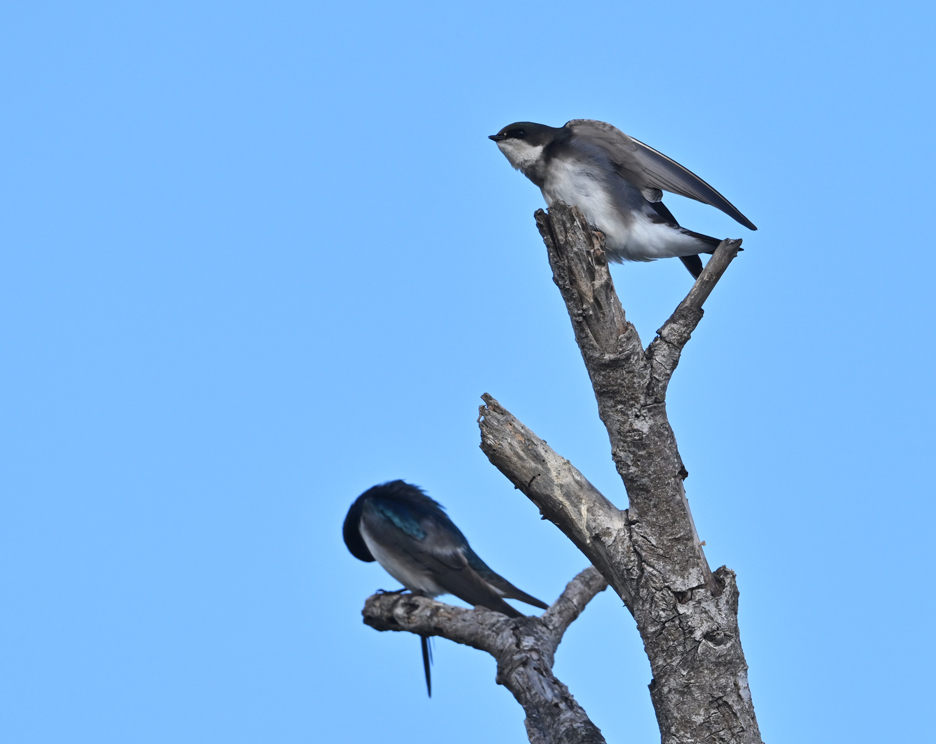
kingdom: Animalia
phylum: Chordata
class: Aves
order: Passeriformes
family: Hirundinidae
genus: Tachycineta
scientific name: Tachycineta bicolor
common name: Tree swallow
